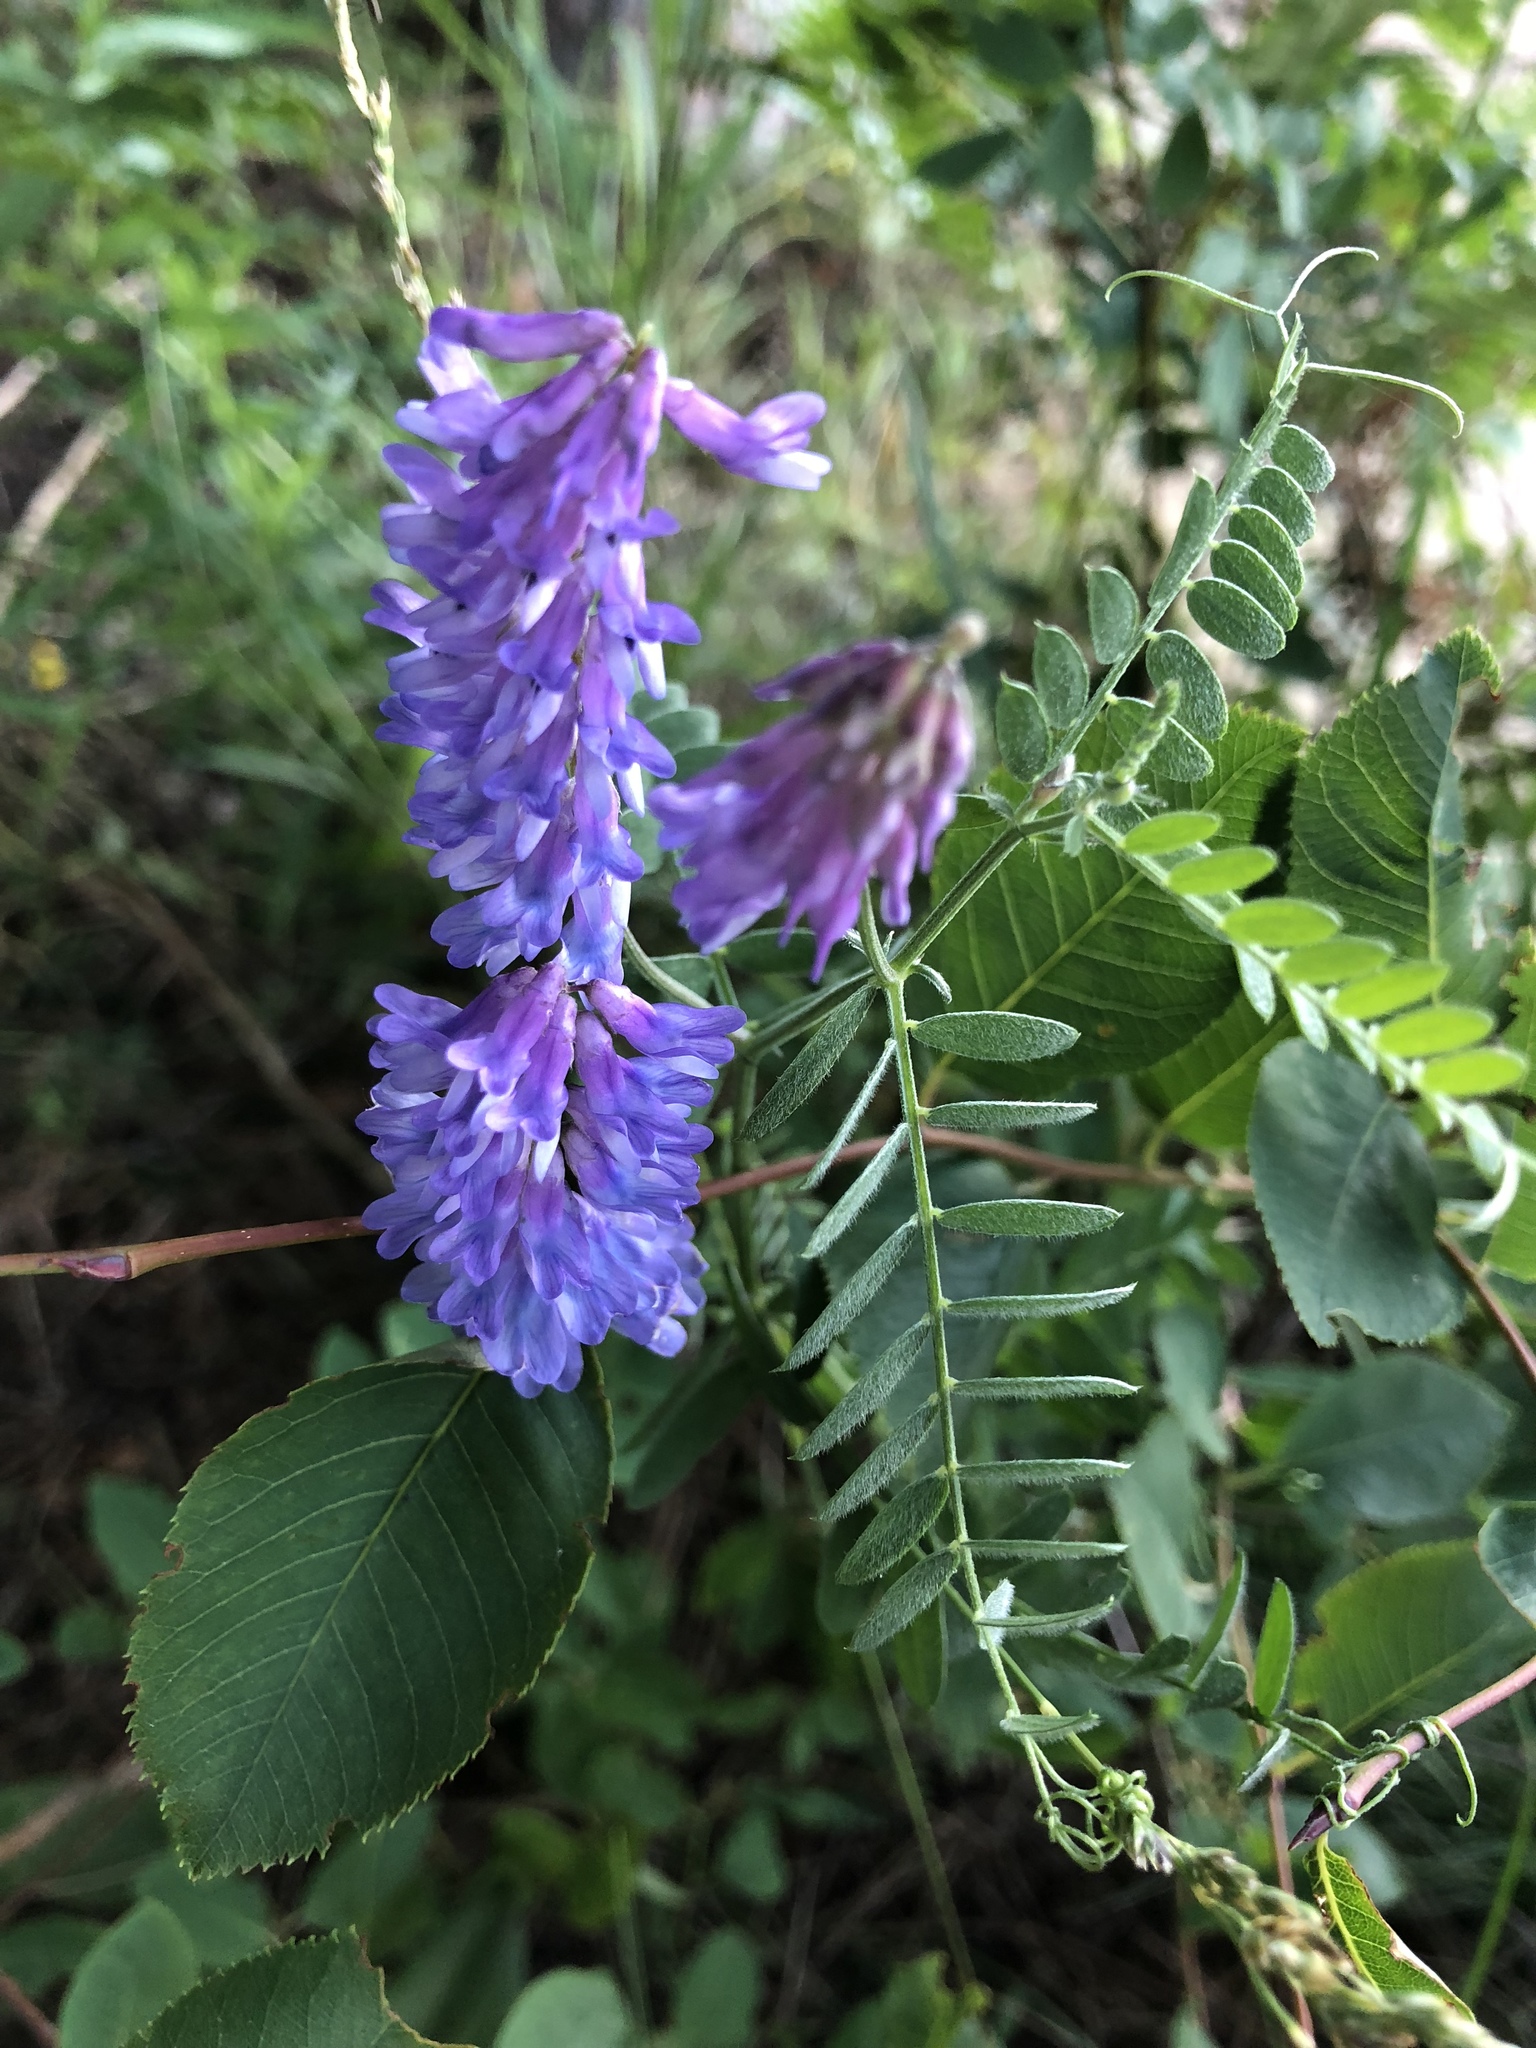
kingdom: Plantae
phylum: Tracheophyta
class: Magnoliopsida
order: Fabales
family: Fabaceae
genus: Vicia
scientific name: Vicia cracca
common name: Bird vetch
